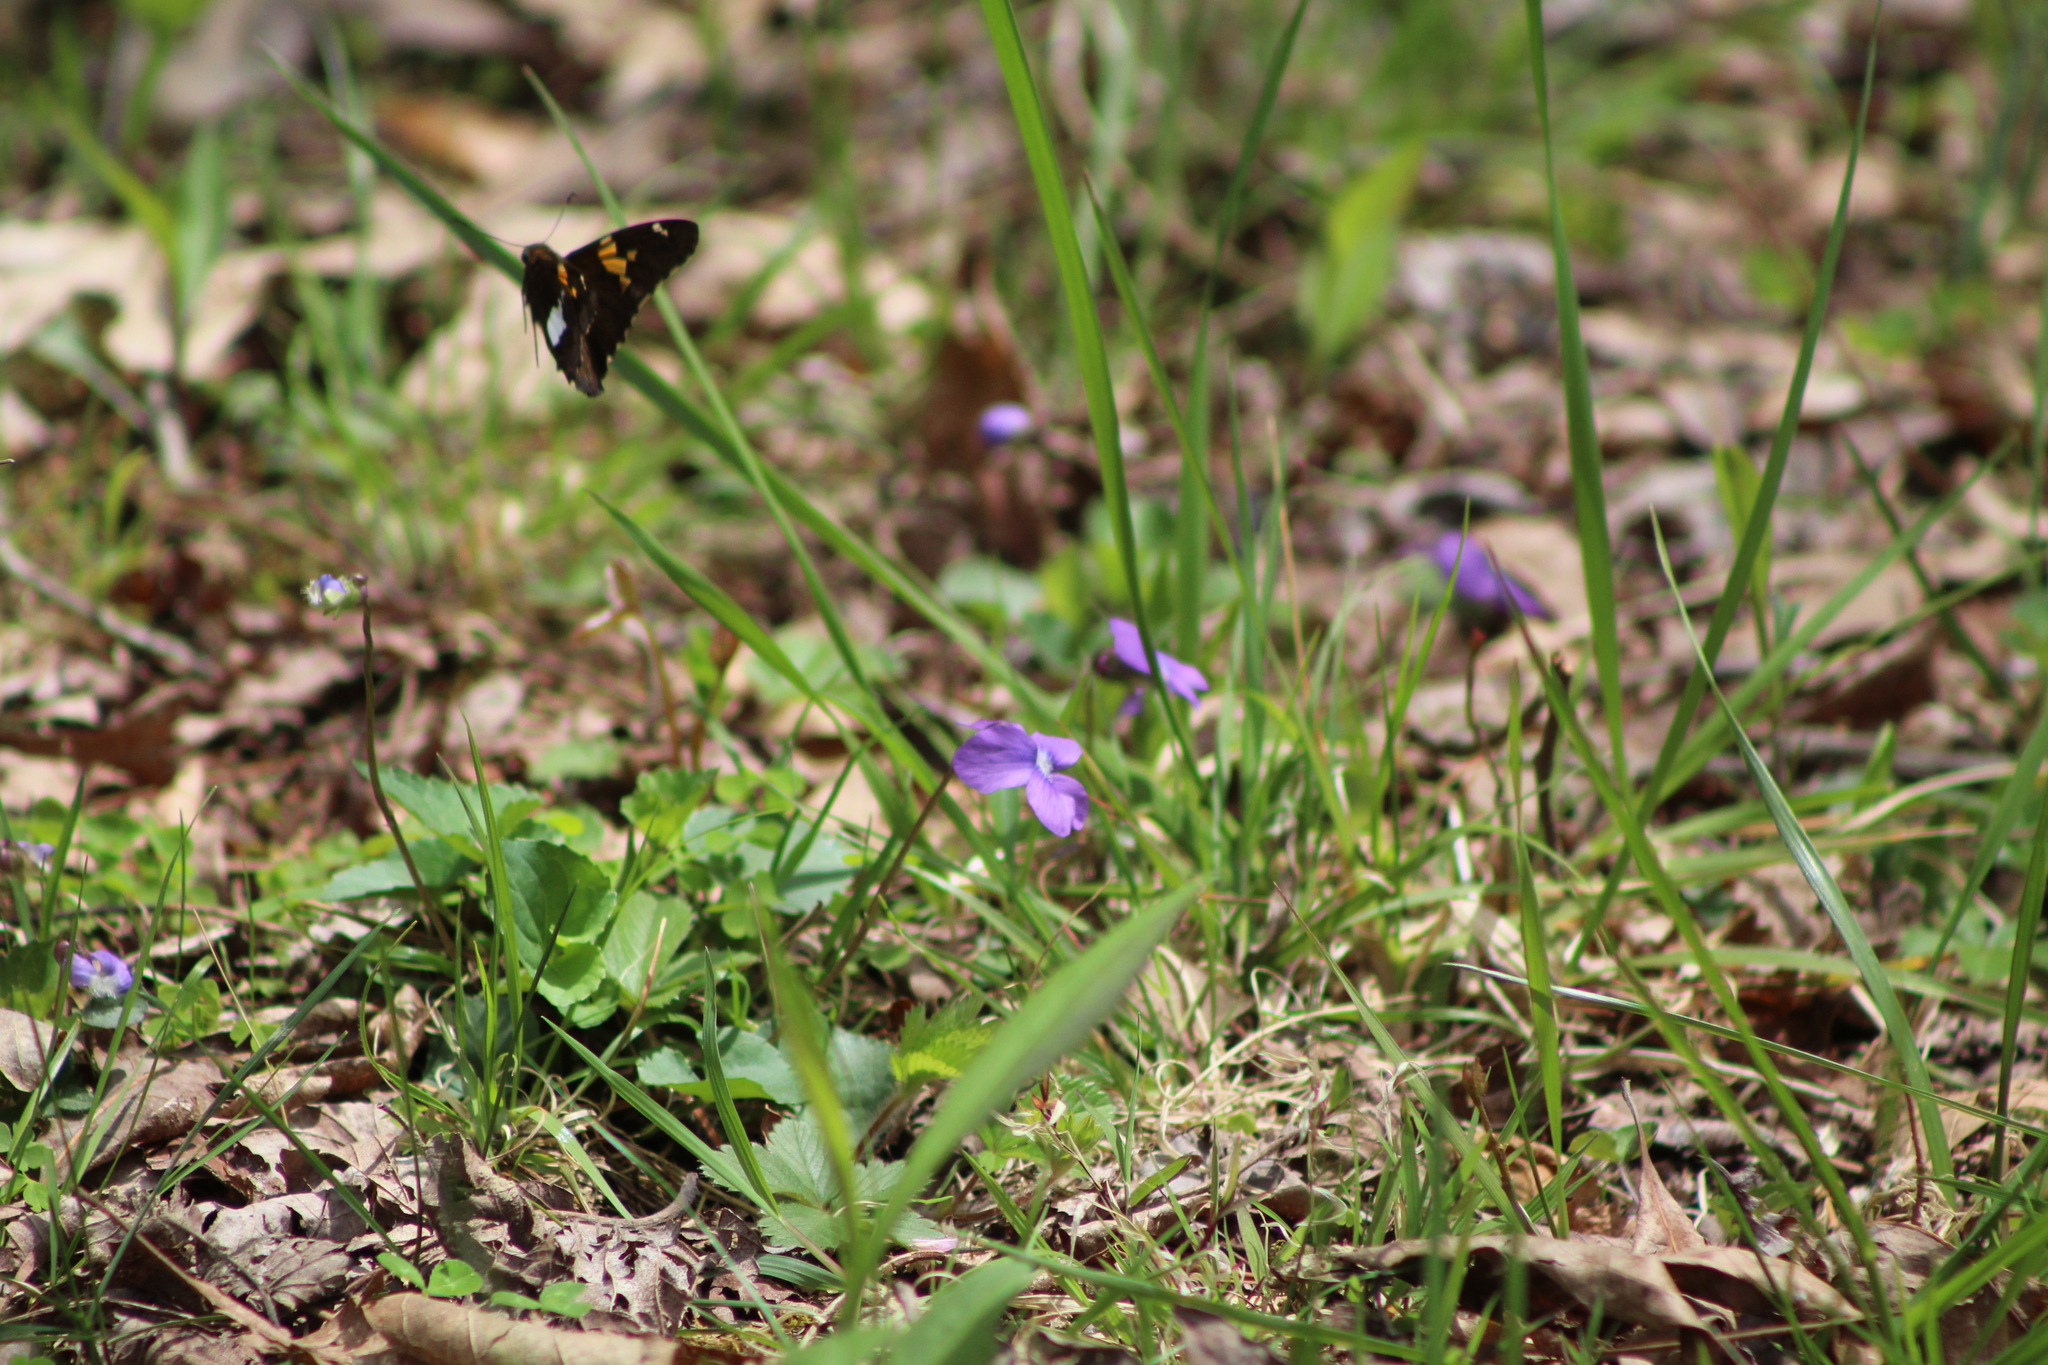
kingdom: Animalia
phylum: Arthropoda
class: Insecta
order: Lepidoptera
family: Hesperiidae
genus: Epargyreus
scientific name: Epargyreus clarus
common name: Silver-spotted skipper
